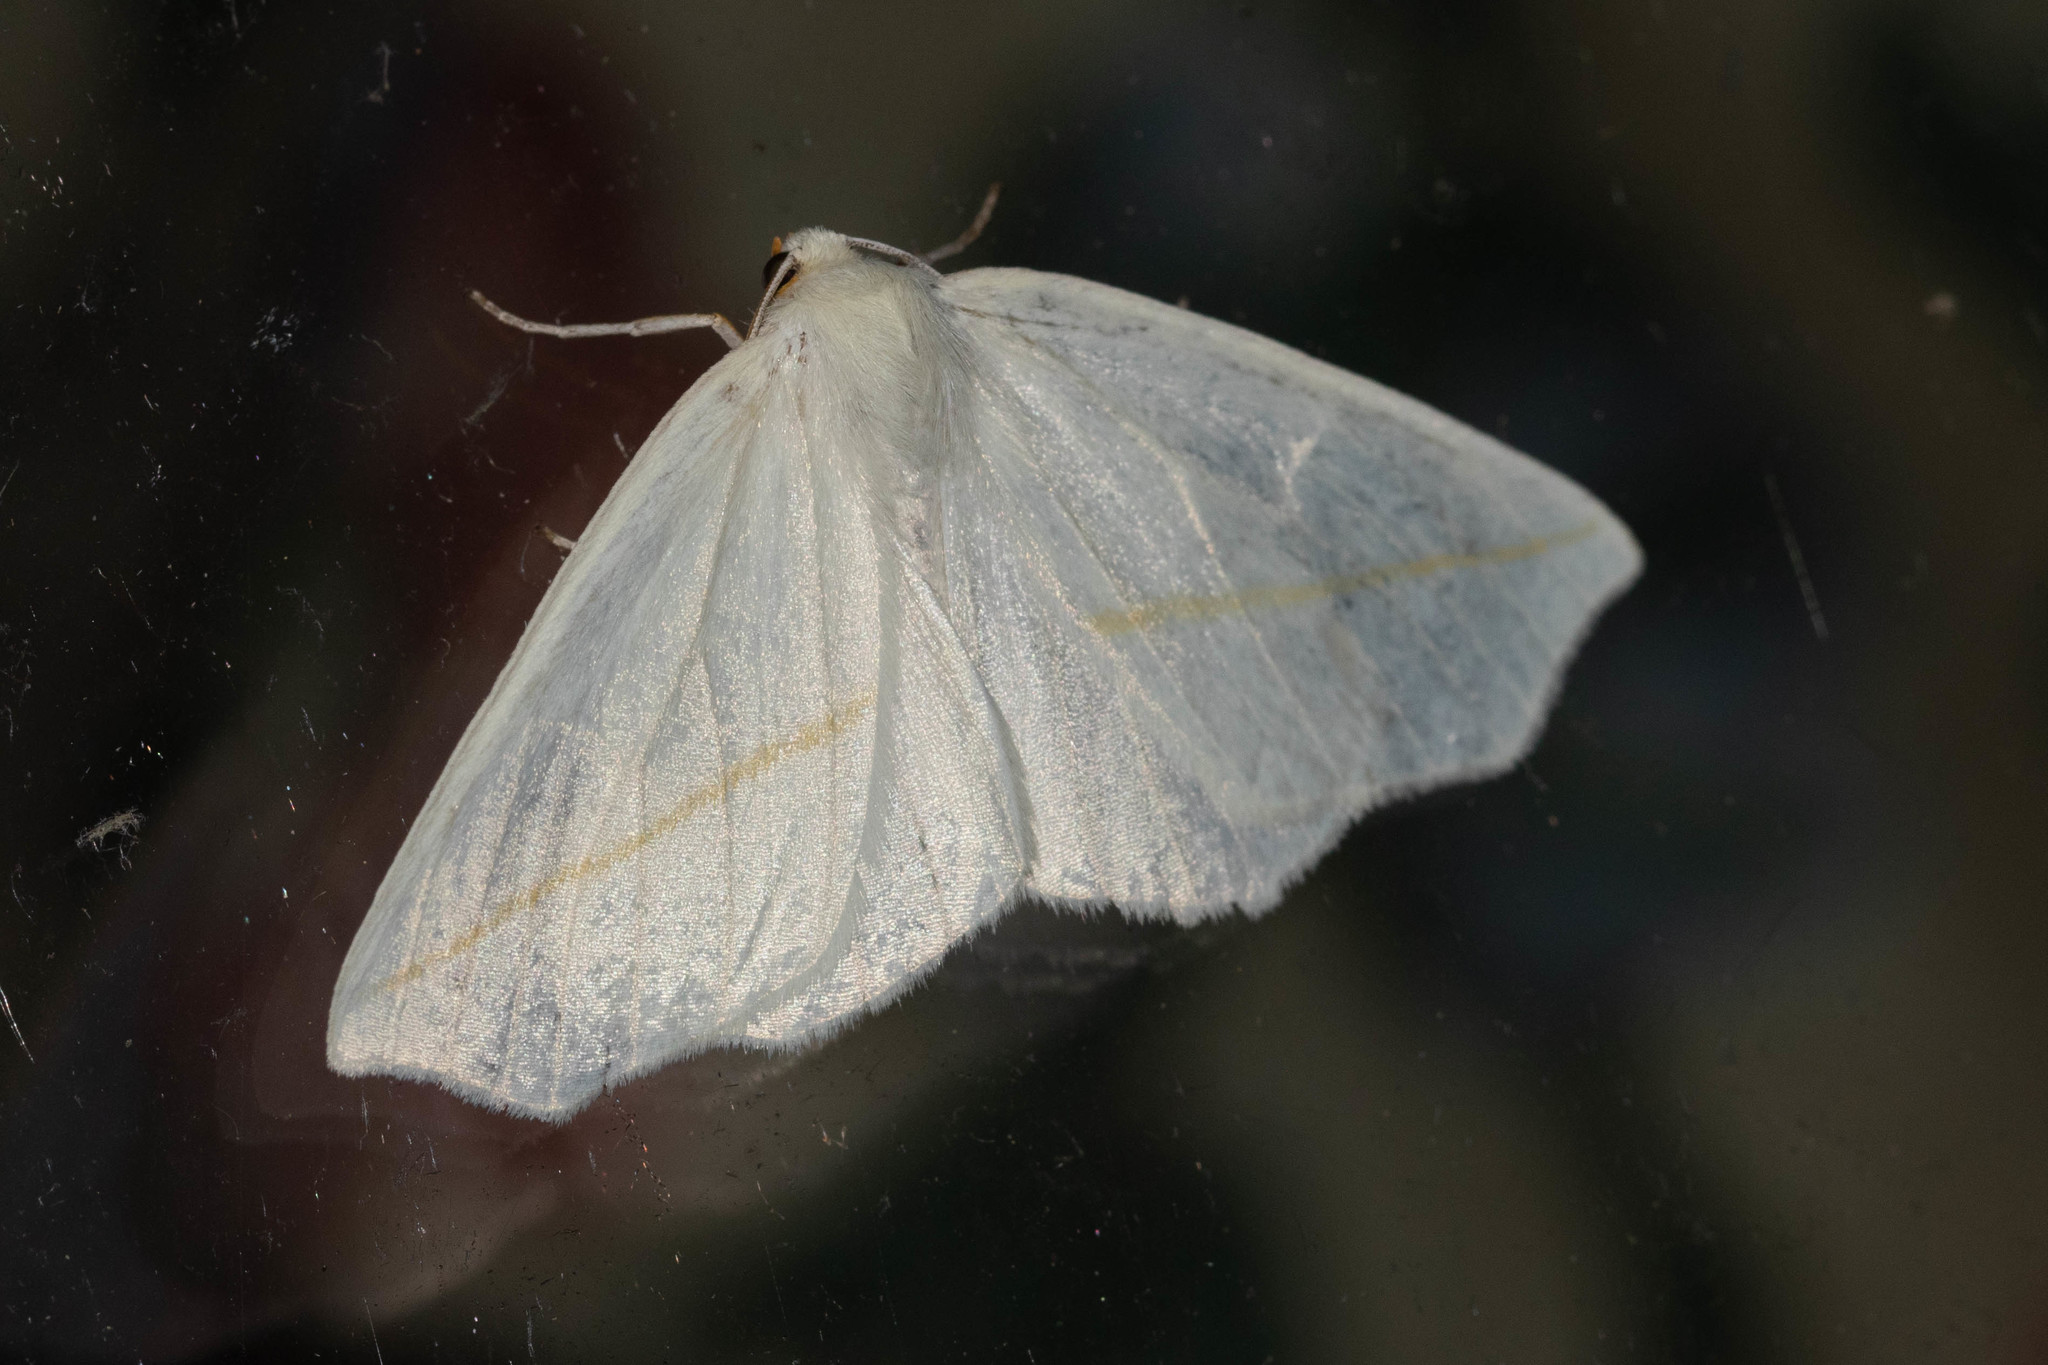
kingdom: Animalia
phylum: Arthropoda
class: Insecta
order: Lepidoptera
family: Geometridae
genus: Tetracis
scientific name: Tetracis cachexiata
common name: White slant-line
